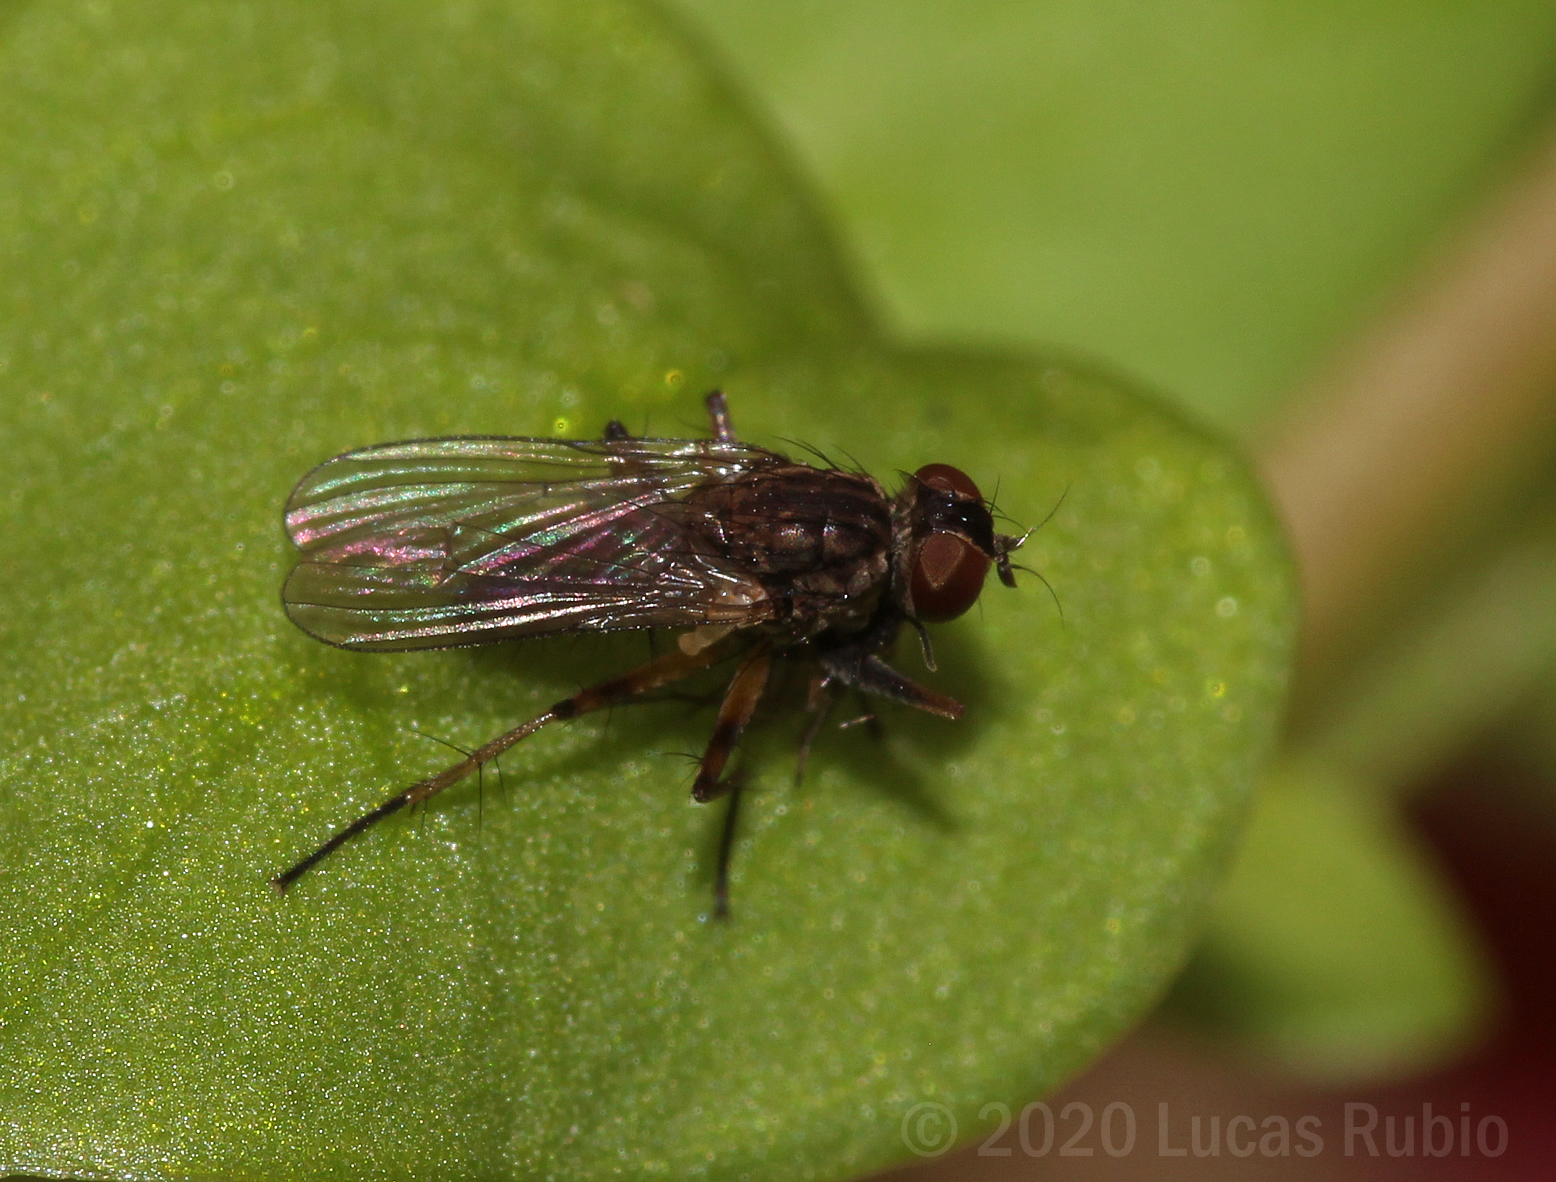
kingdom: Animalia
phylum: Arthropoda
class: Insecta
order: Diptera
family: Muscidae
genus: Bithoracochaeta
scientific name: Bithoracochaeta calopus
